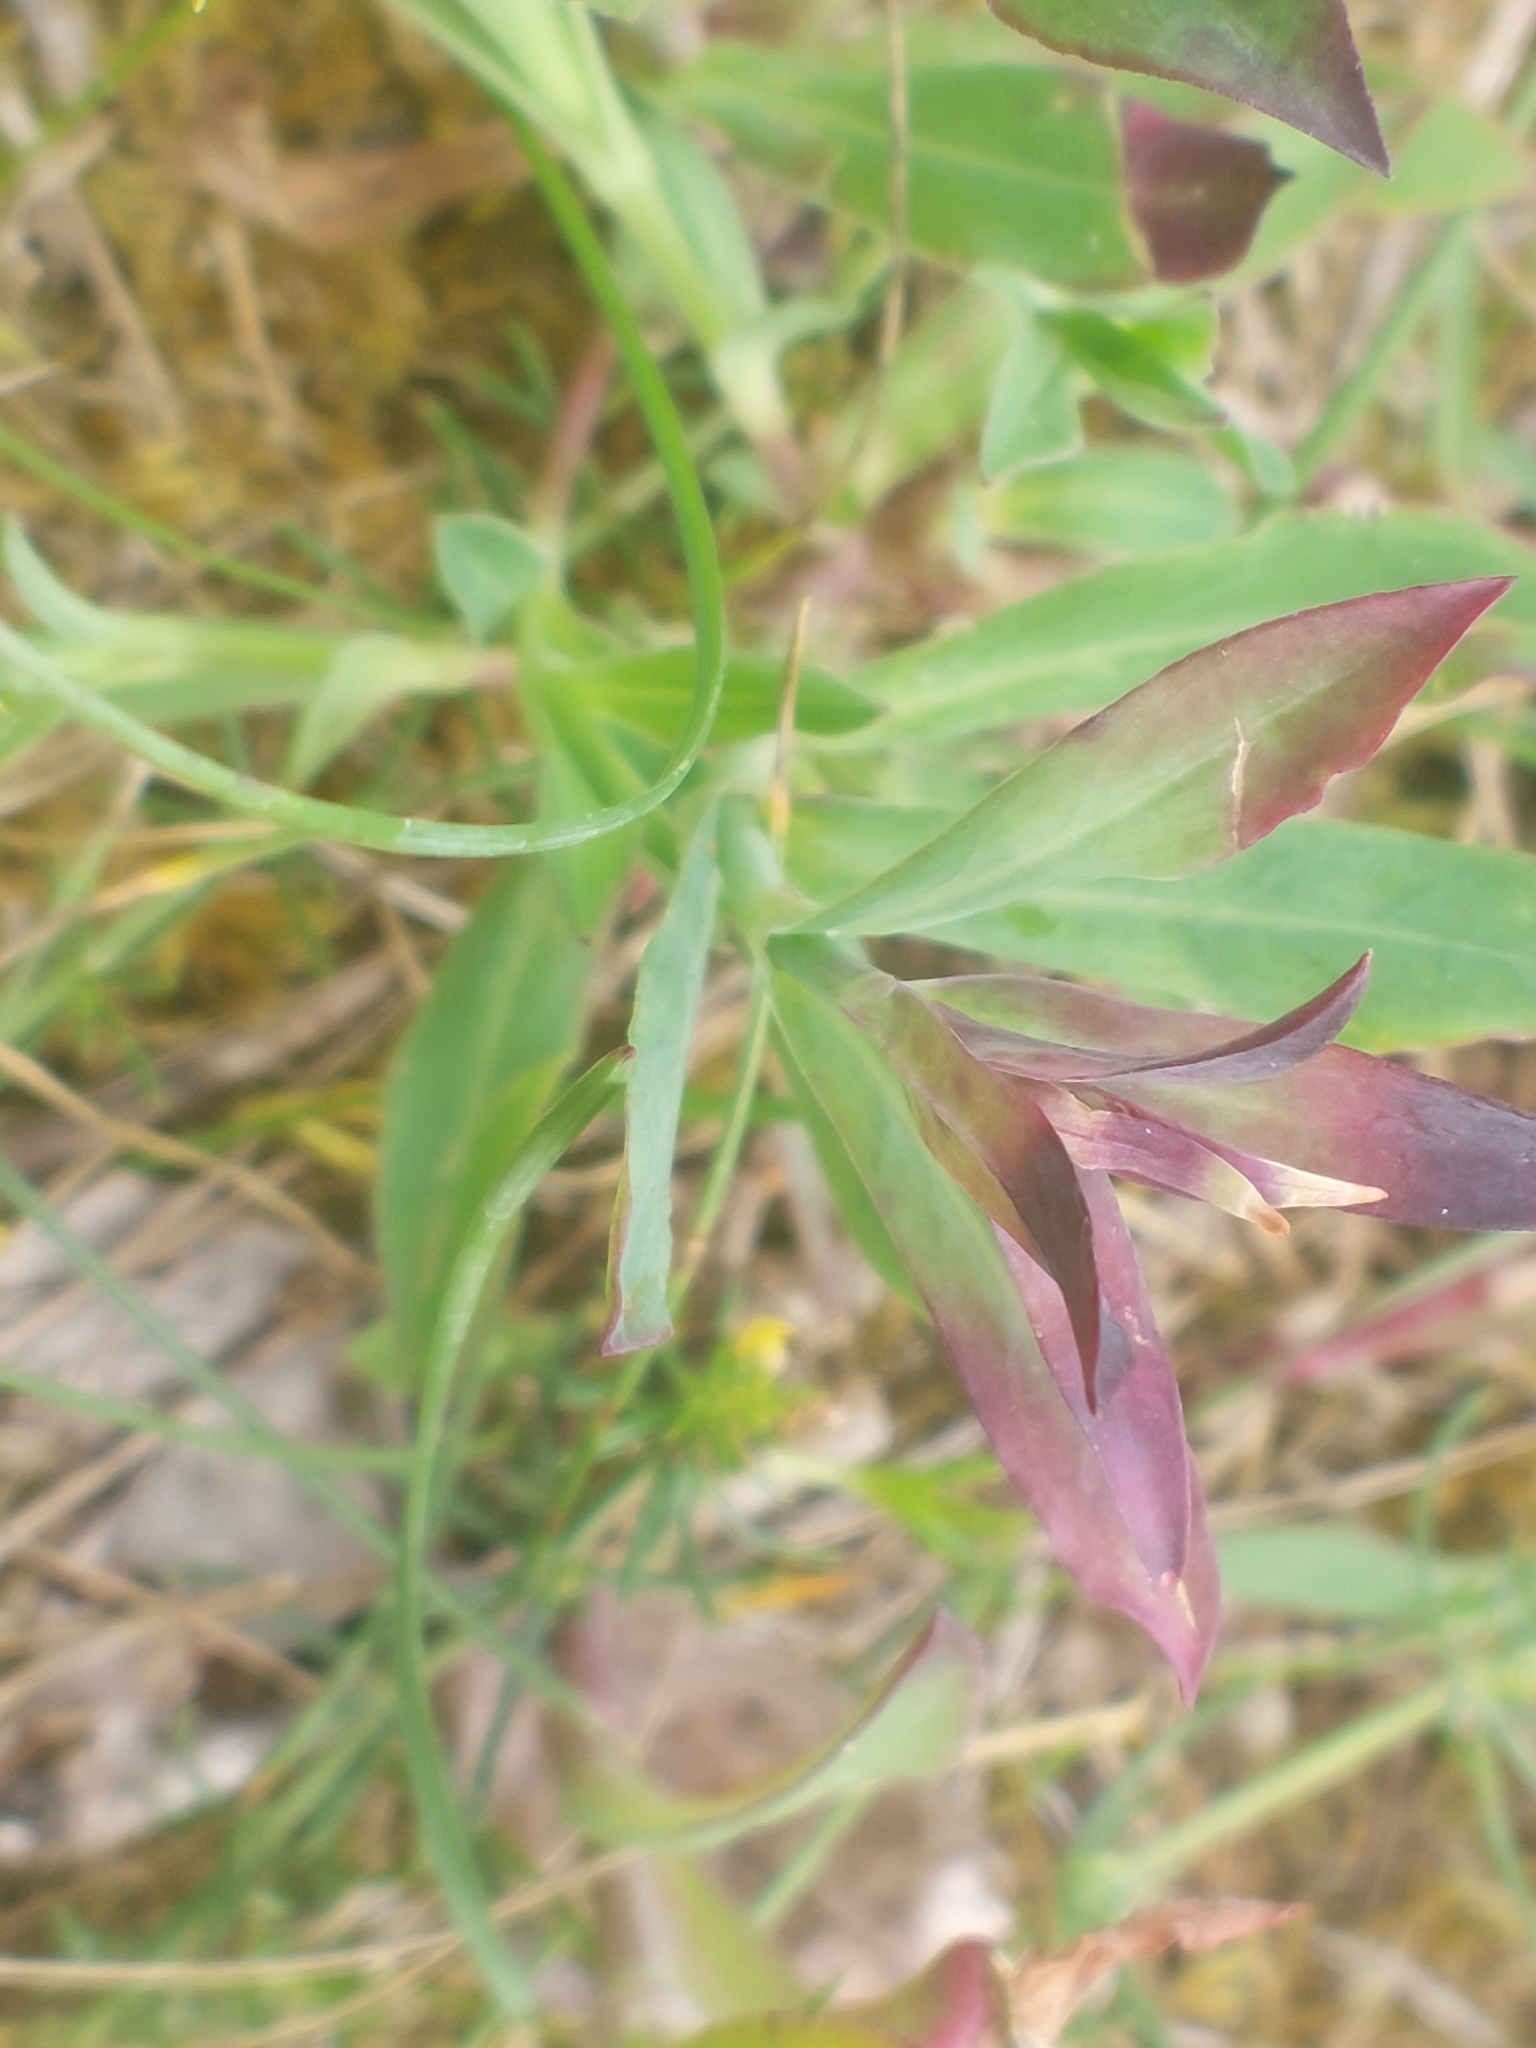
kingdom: Plantae
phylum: Tracheophyta
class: Magnoliopsida
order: Caryophyllales
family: Caryophyllaceae
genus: Silene
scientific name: Silene vulgaris
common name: Bladder campion
